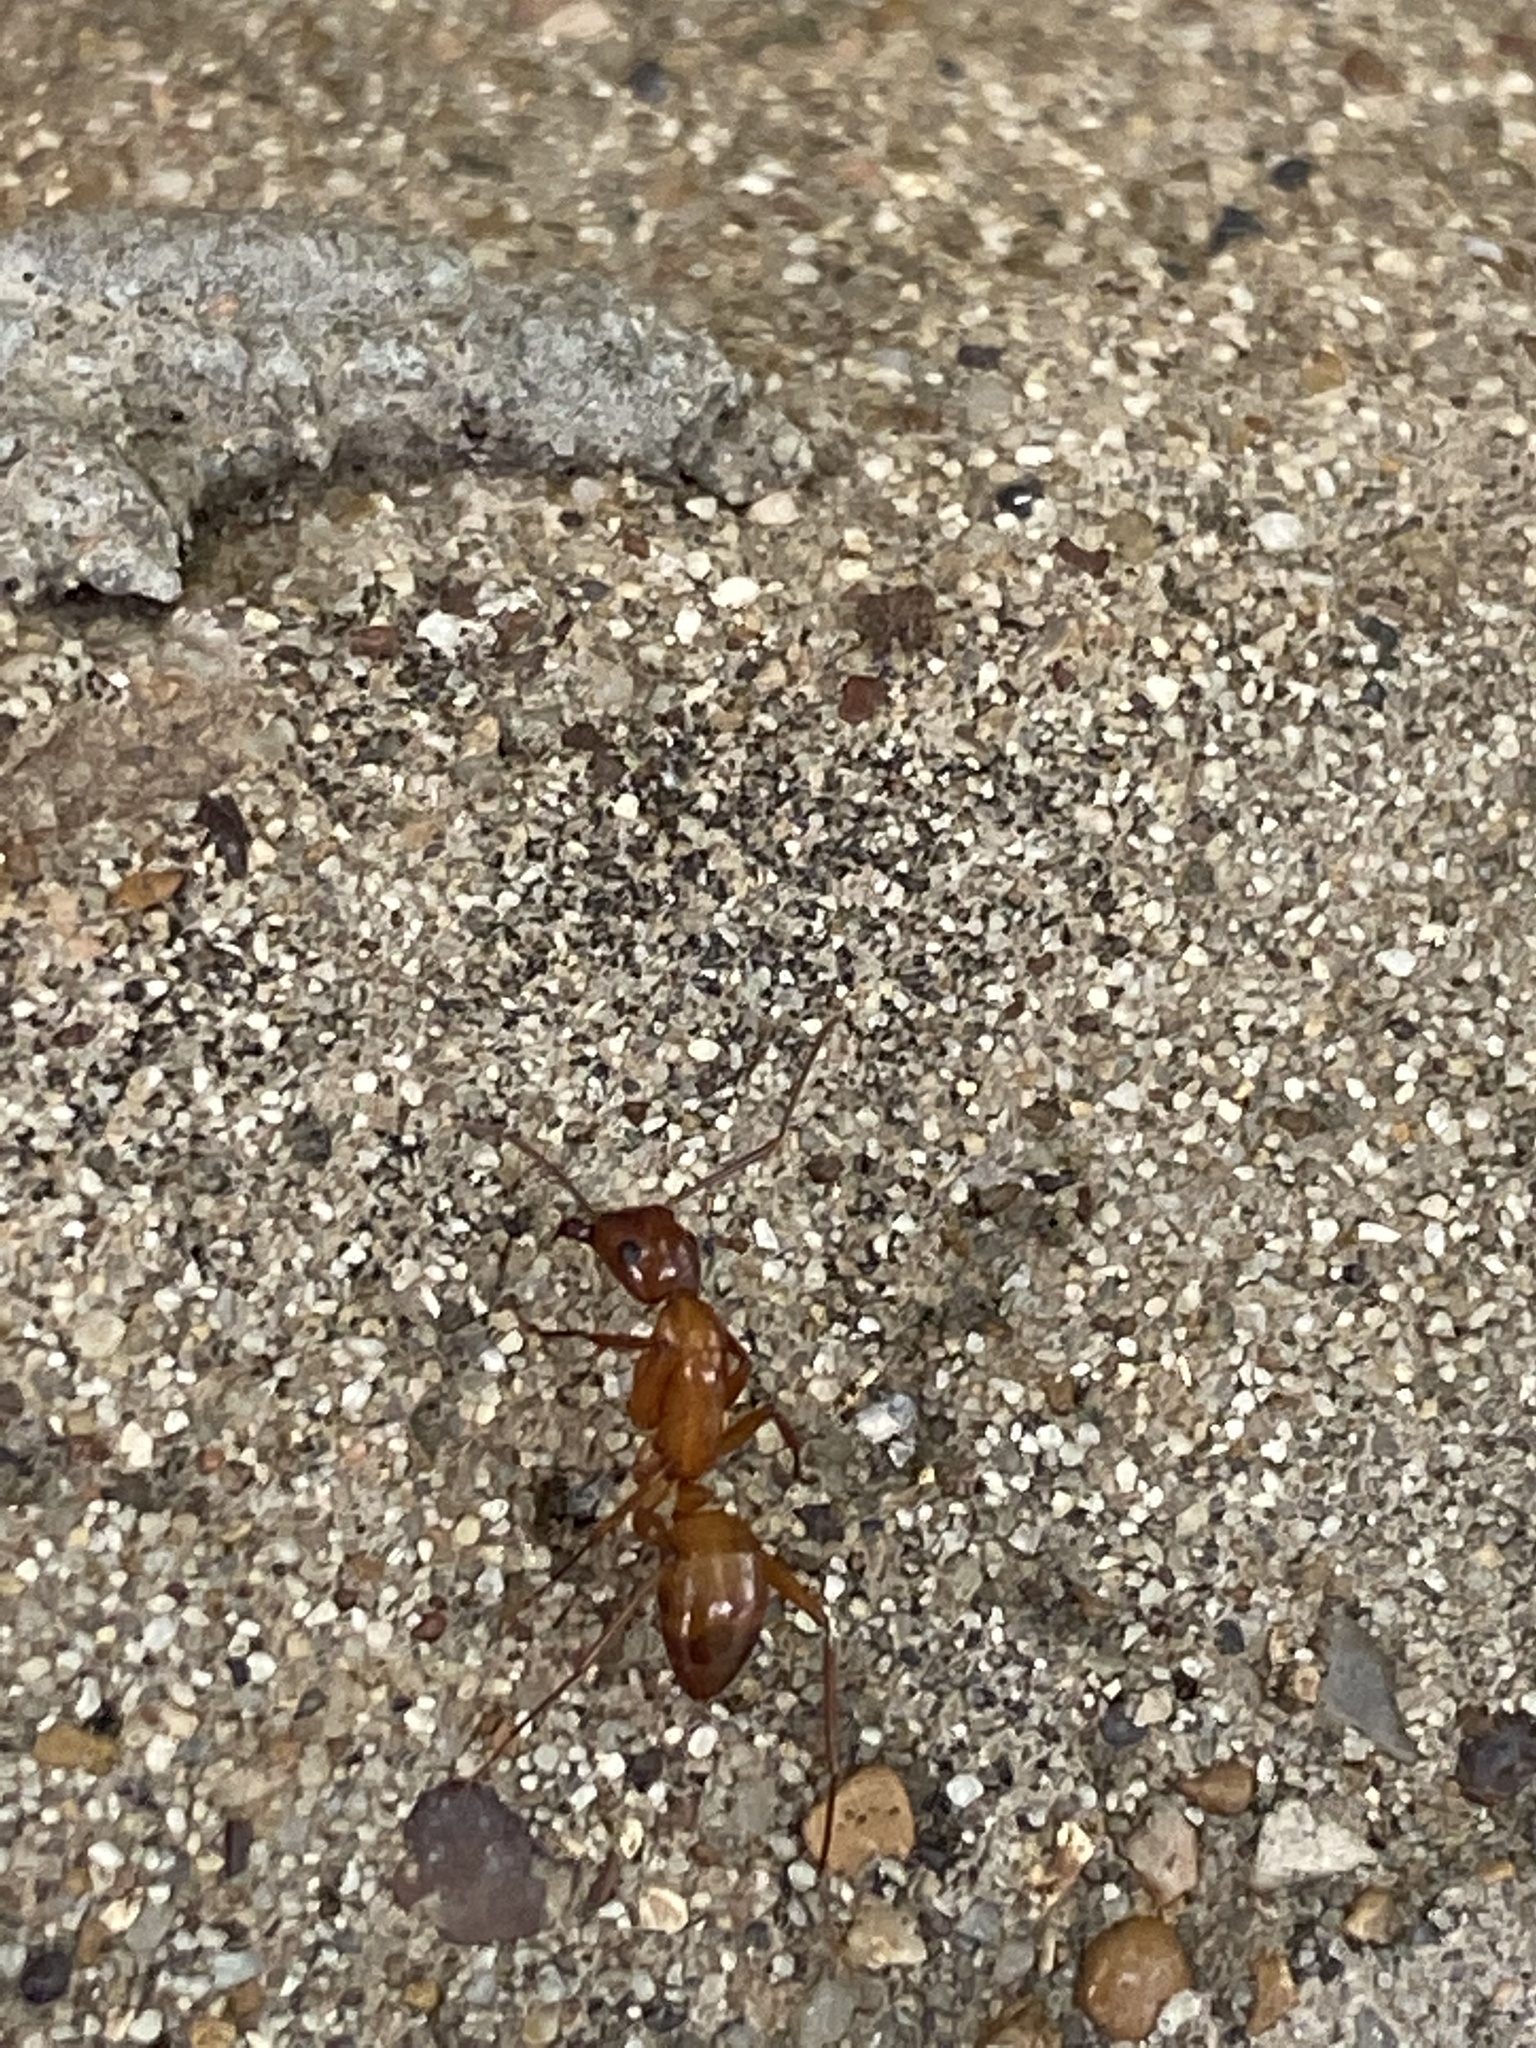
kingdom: Animalia
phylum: Arthropoda
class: Insecta
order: Hymenoptera
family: Formicidae
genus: Camponotus
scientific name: Camponotus castaneus
